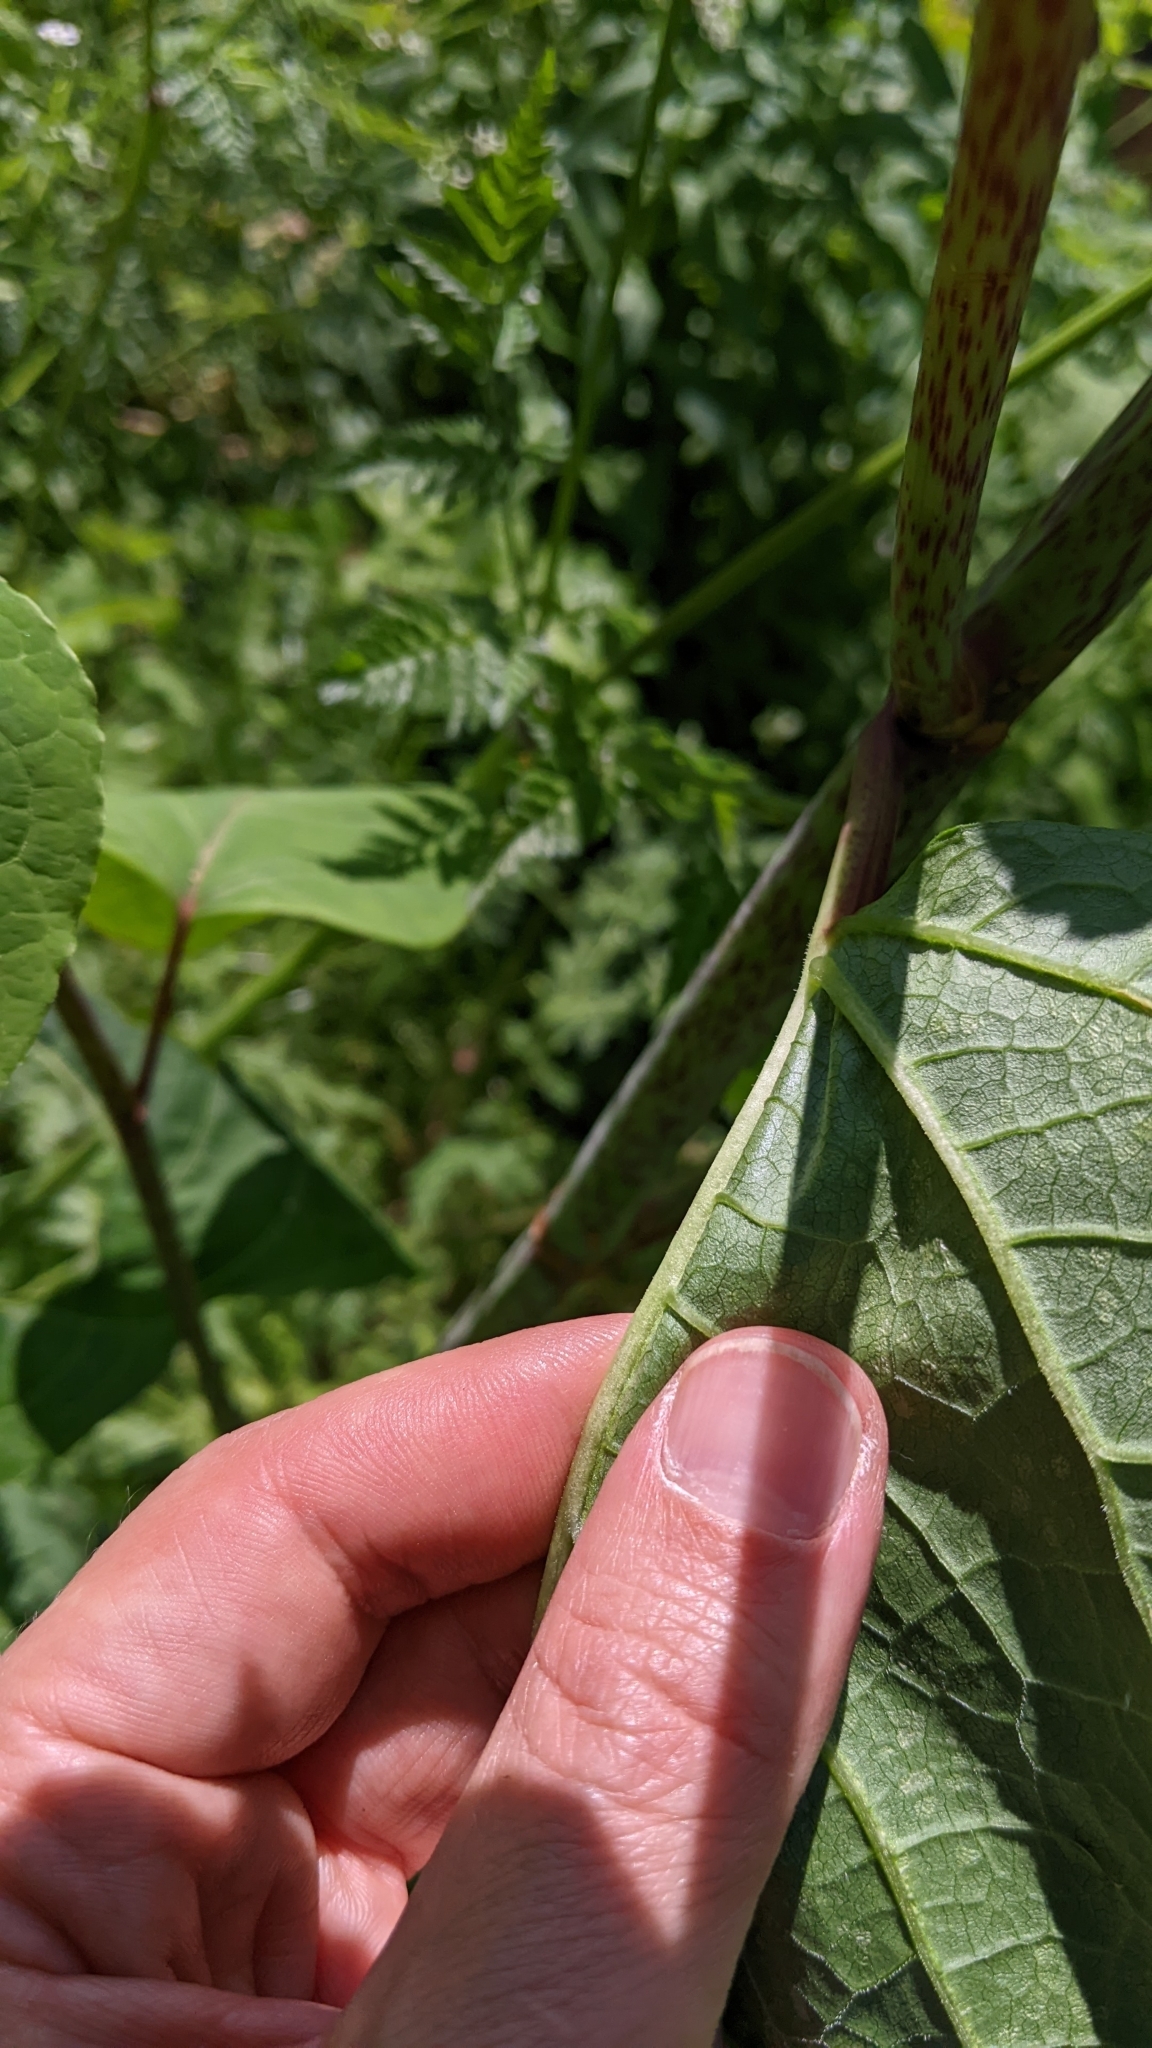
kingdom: Plantae
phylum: Tracheophyta
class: Magnoliopsida
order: Caryophyllales
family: Polygonaceae
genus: Reynoutria
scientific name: Reynoutria bohemica
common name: Bohemian knotweed
